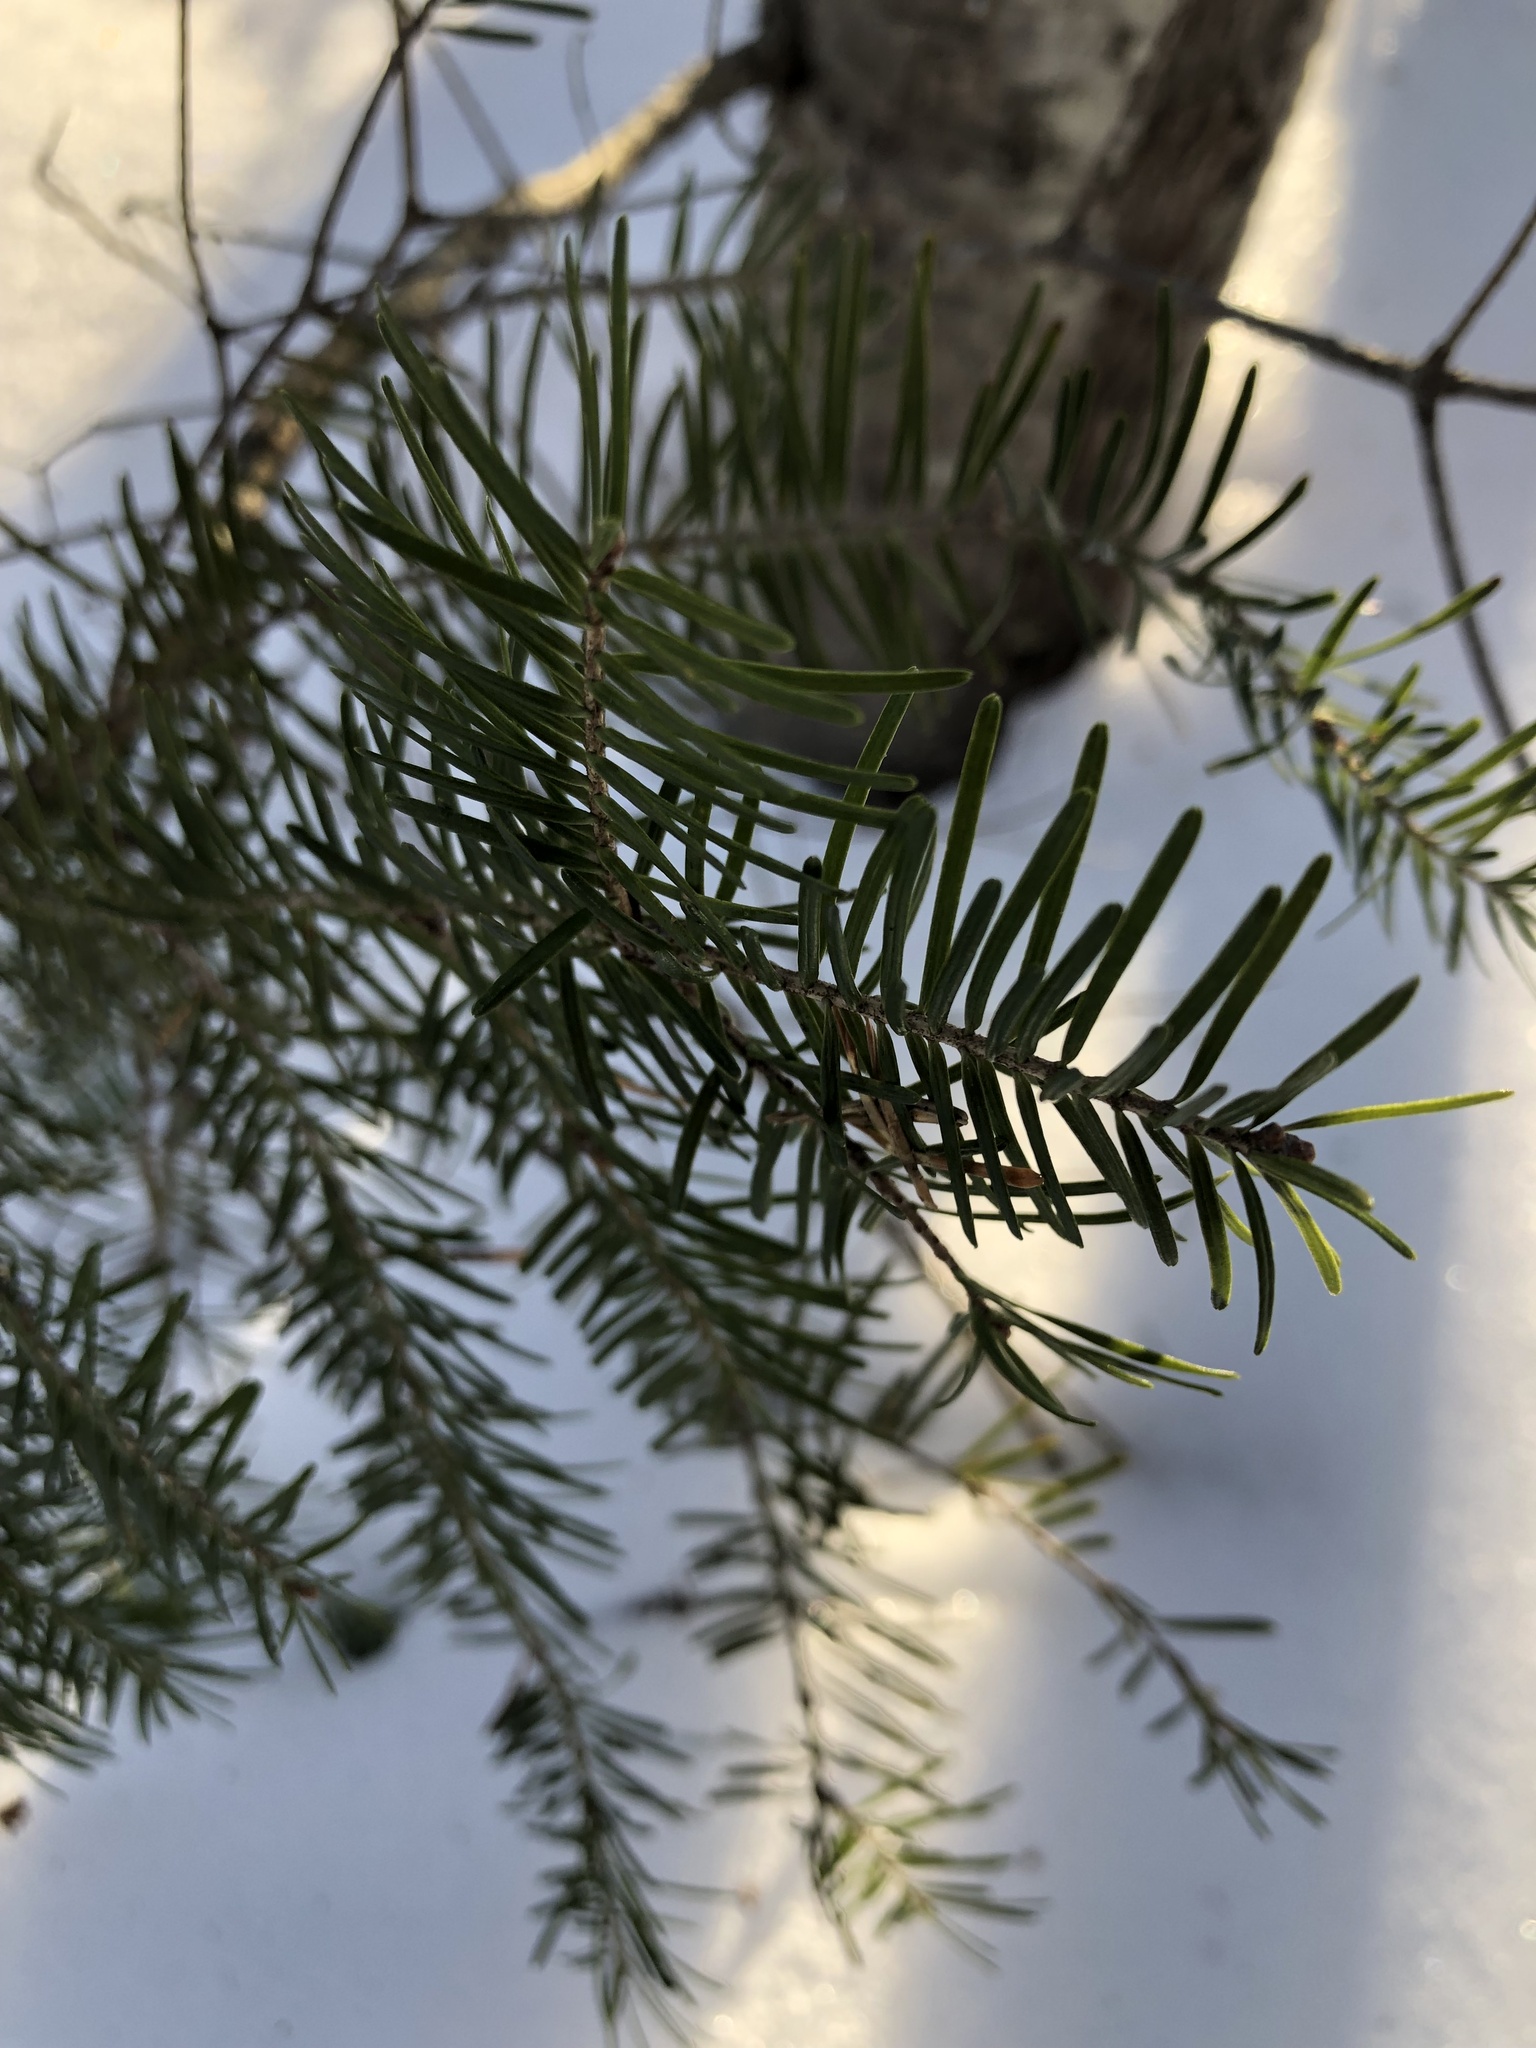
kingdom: Plantae
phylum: Tracheophyta
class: Pinopsida
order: Pinales
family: Pinaceae
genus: Abies
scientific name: Abies balsamea
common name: Balsam fir
